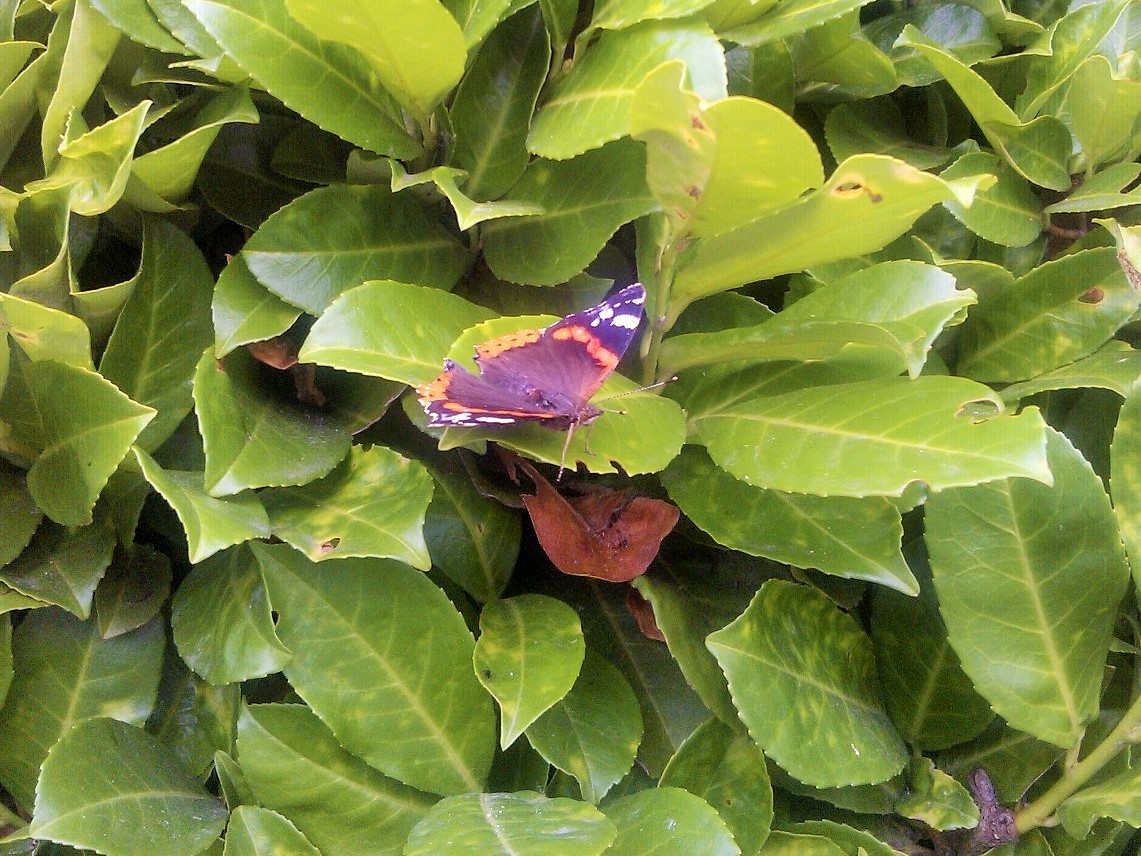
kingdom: Animalia
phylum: Arthropoda
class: Insecta
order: Lepidoptera
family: Nymphalidae
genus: Vanessa
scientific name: Vanessa atalanta
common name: Red admiral
